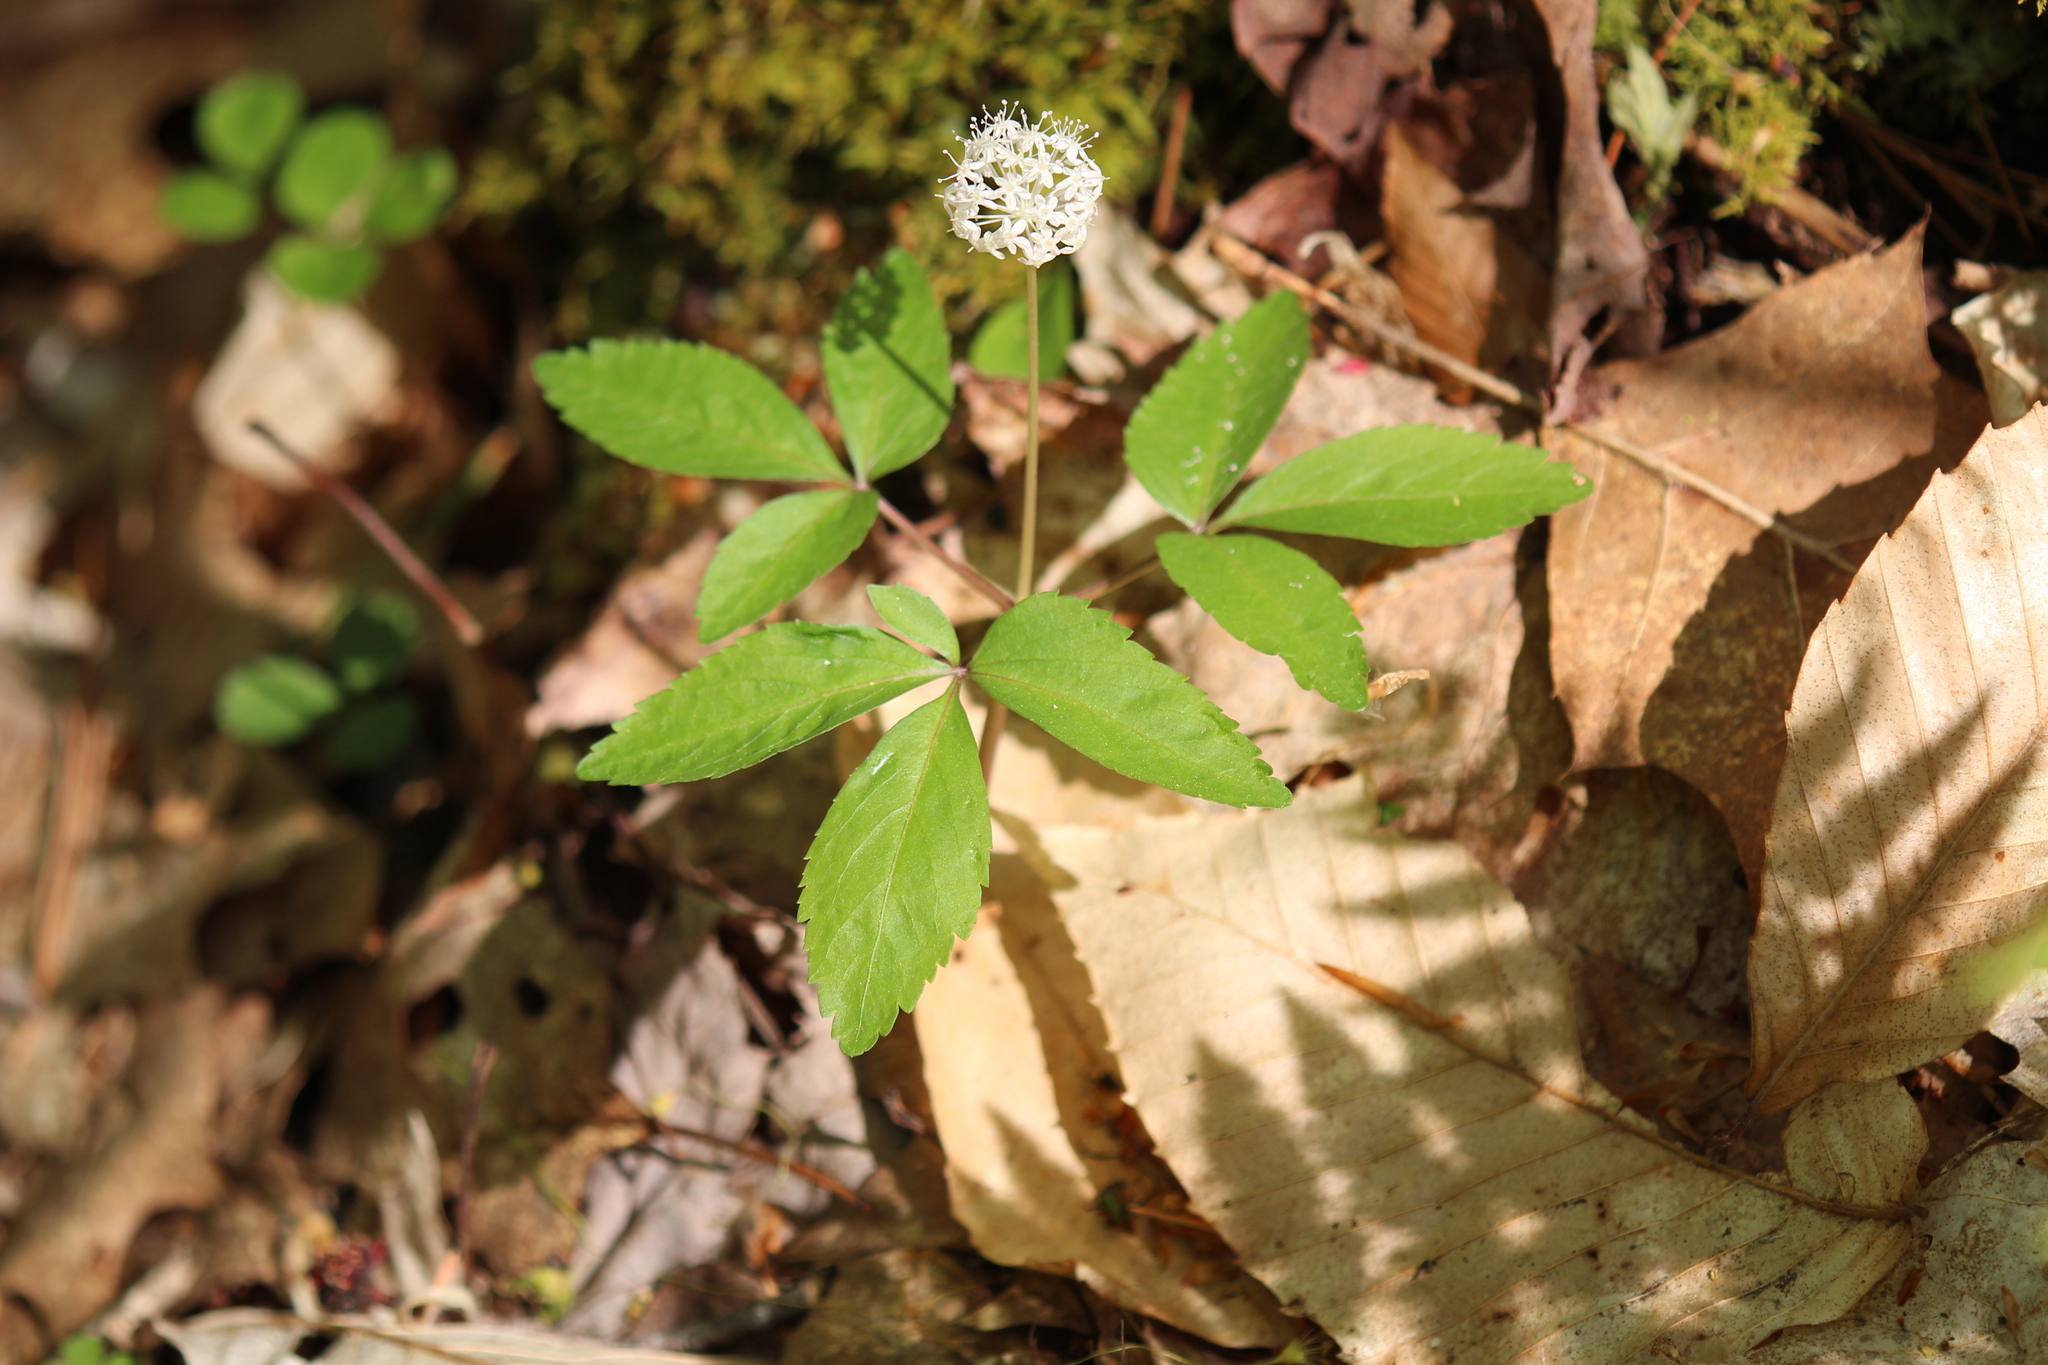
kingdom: Plantae
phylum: Tracheophyta
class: Magnoliopsida
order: Apiales
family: Araliaceae
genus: Panax
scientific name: Panax trifolius
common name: Dwarf ginseng
